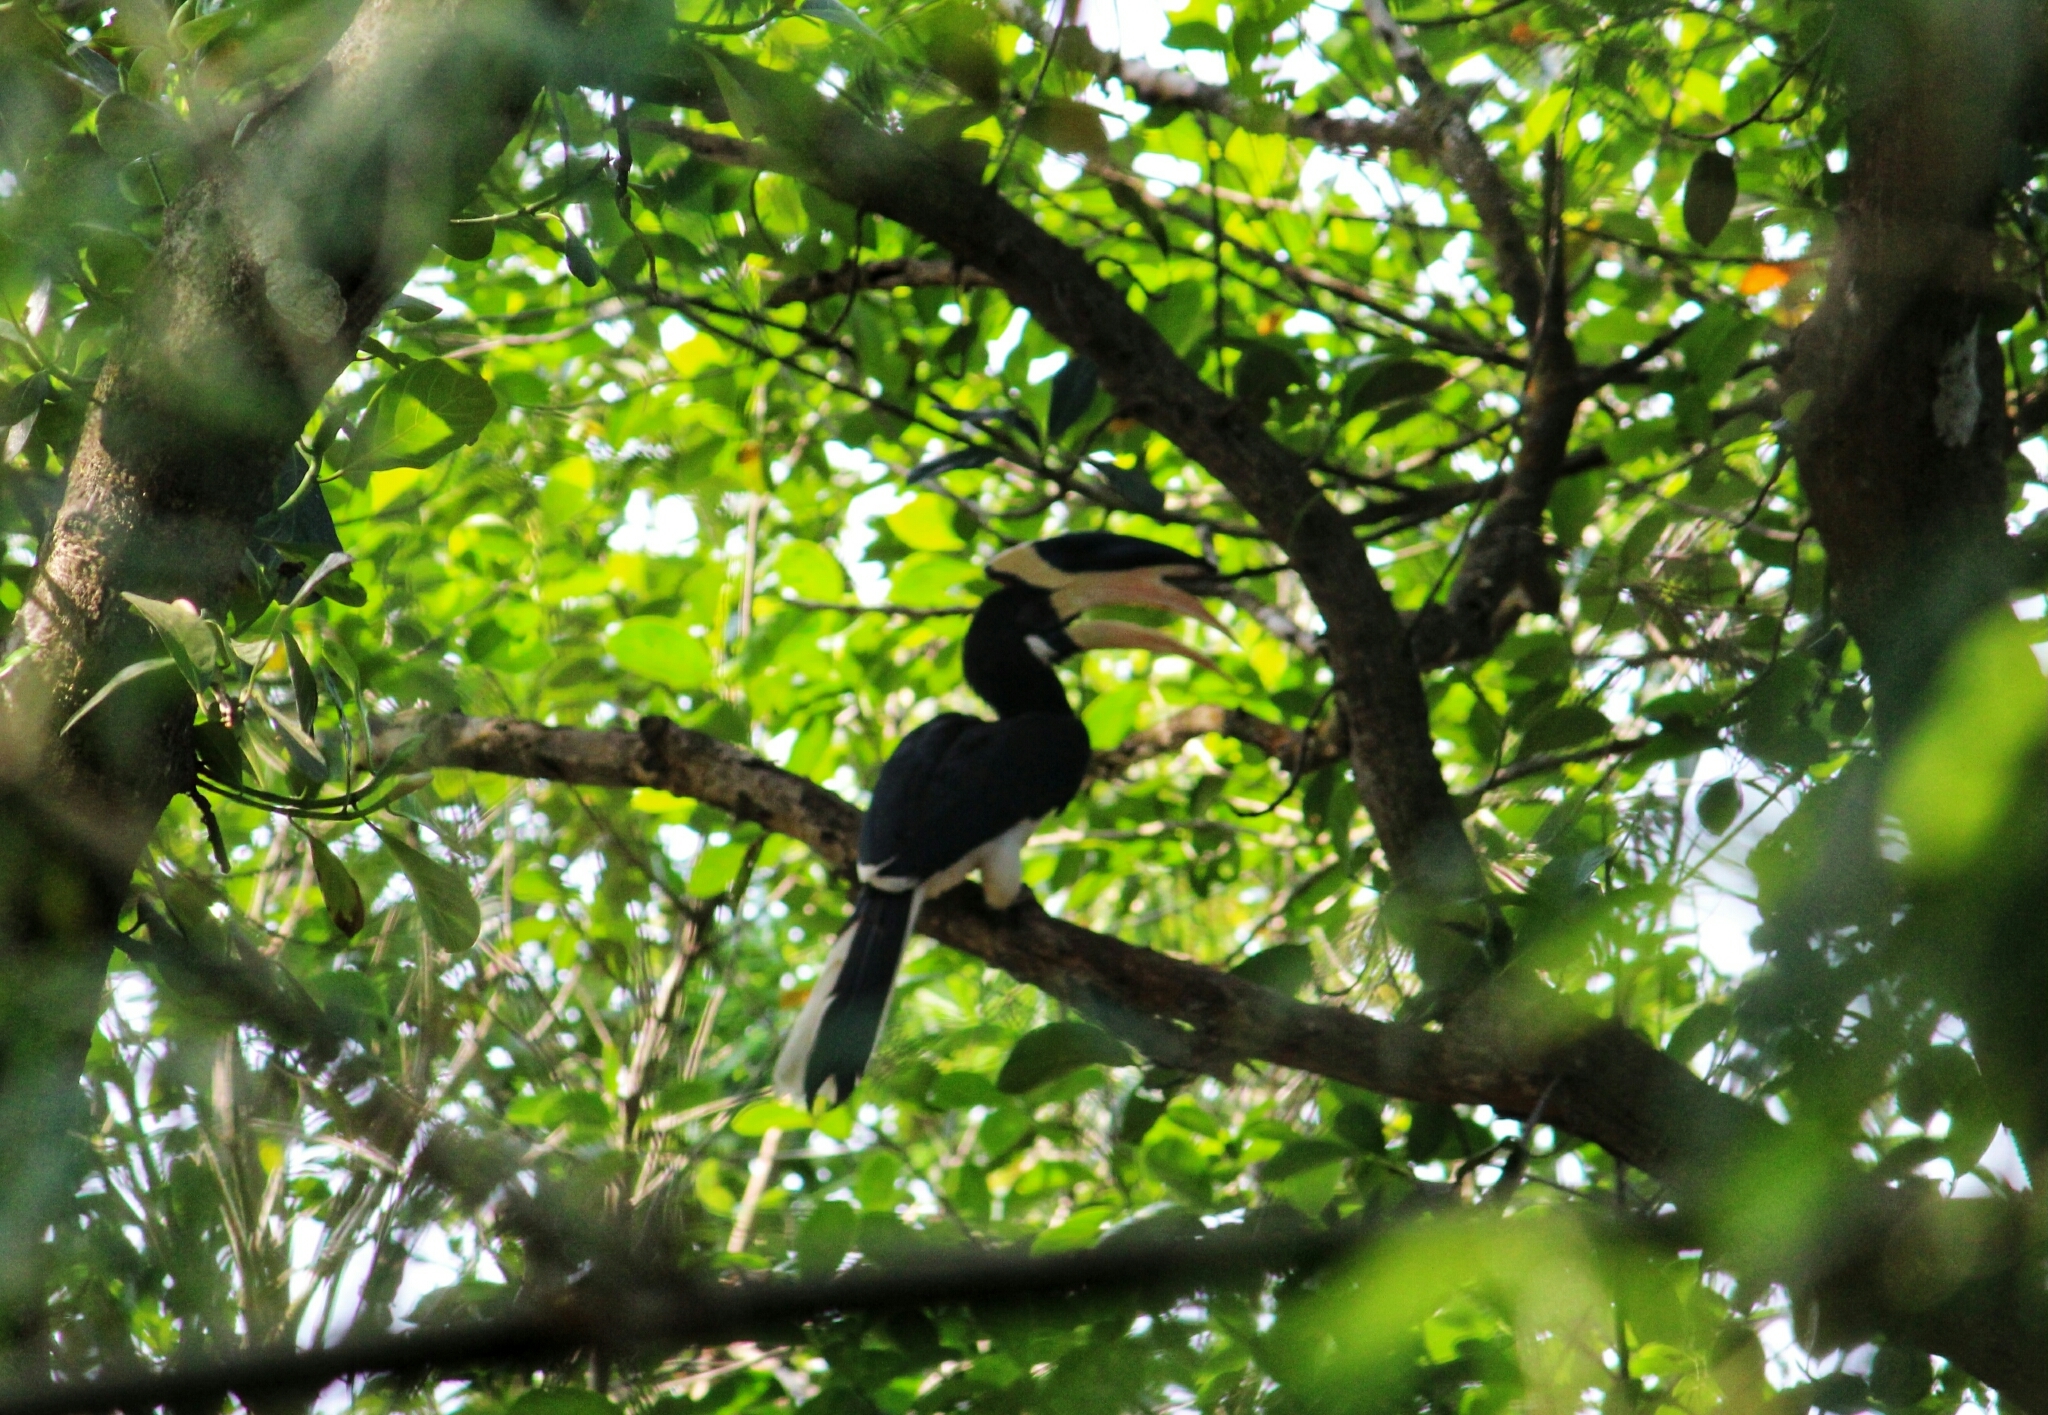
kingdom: Animalia
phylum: Chordata
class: Aves
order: Bucerotiformes
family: Bucerotidae
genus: Anthracoceros
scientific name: Anthracoceros coronatus
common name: Malabar pied hornbill
